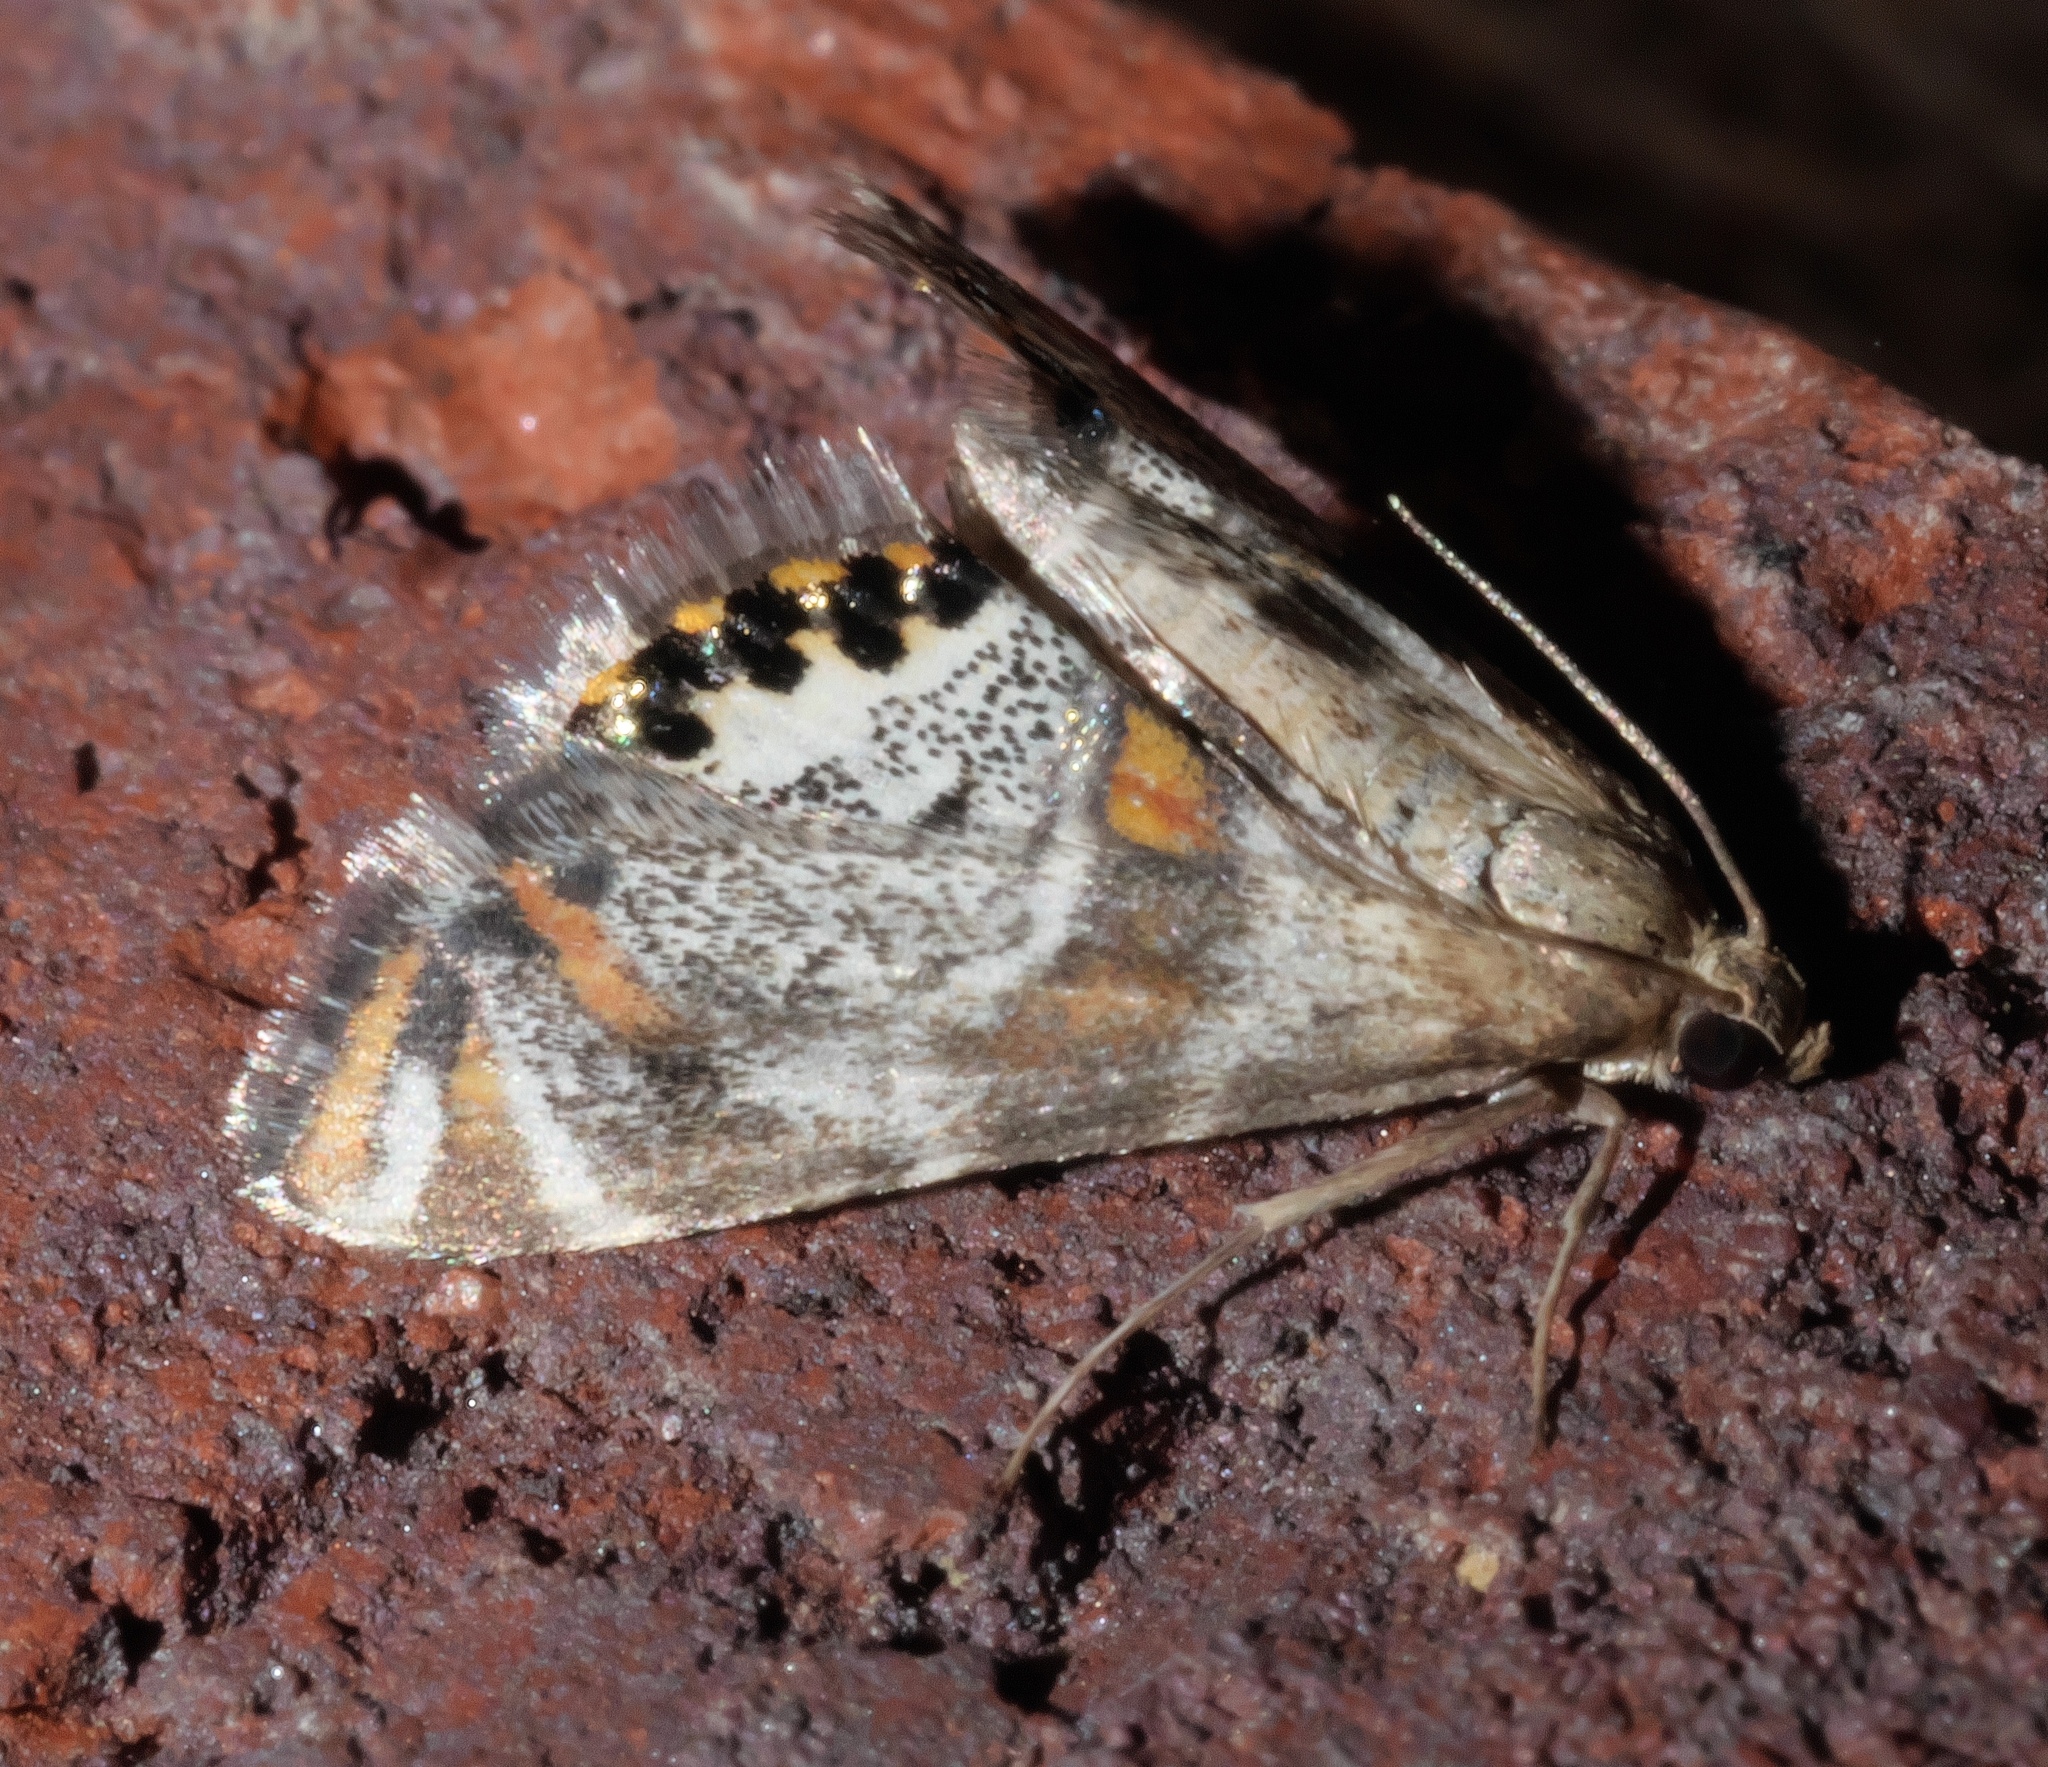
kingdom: Animalia
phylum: Arthropoda
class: Insecta
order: Lepidoptera
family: Crambidae
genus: Petrophila
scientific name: Petrophila jaliscalis
